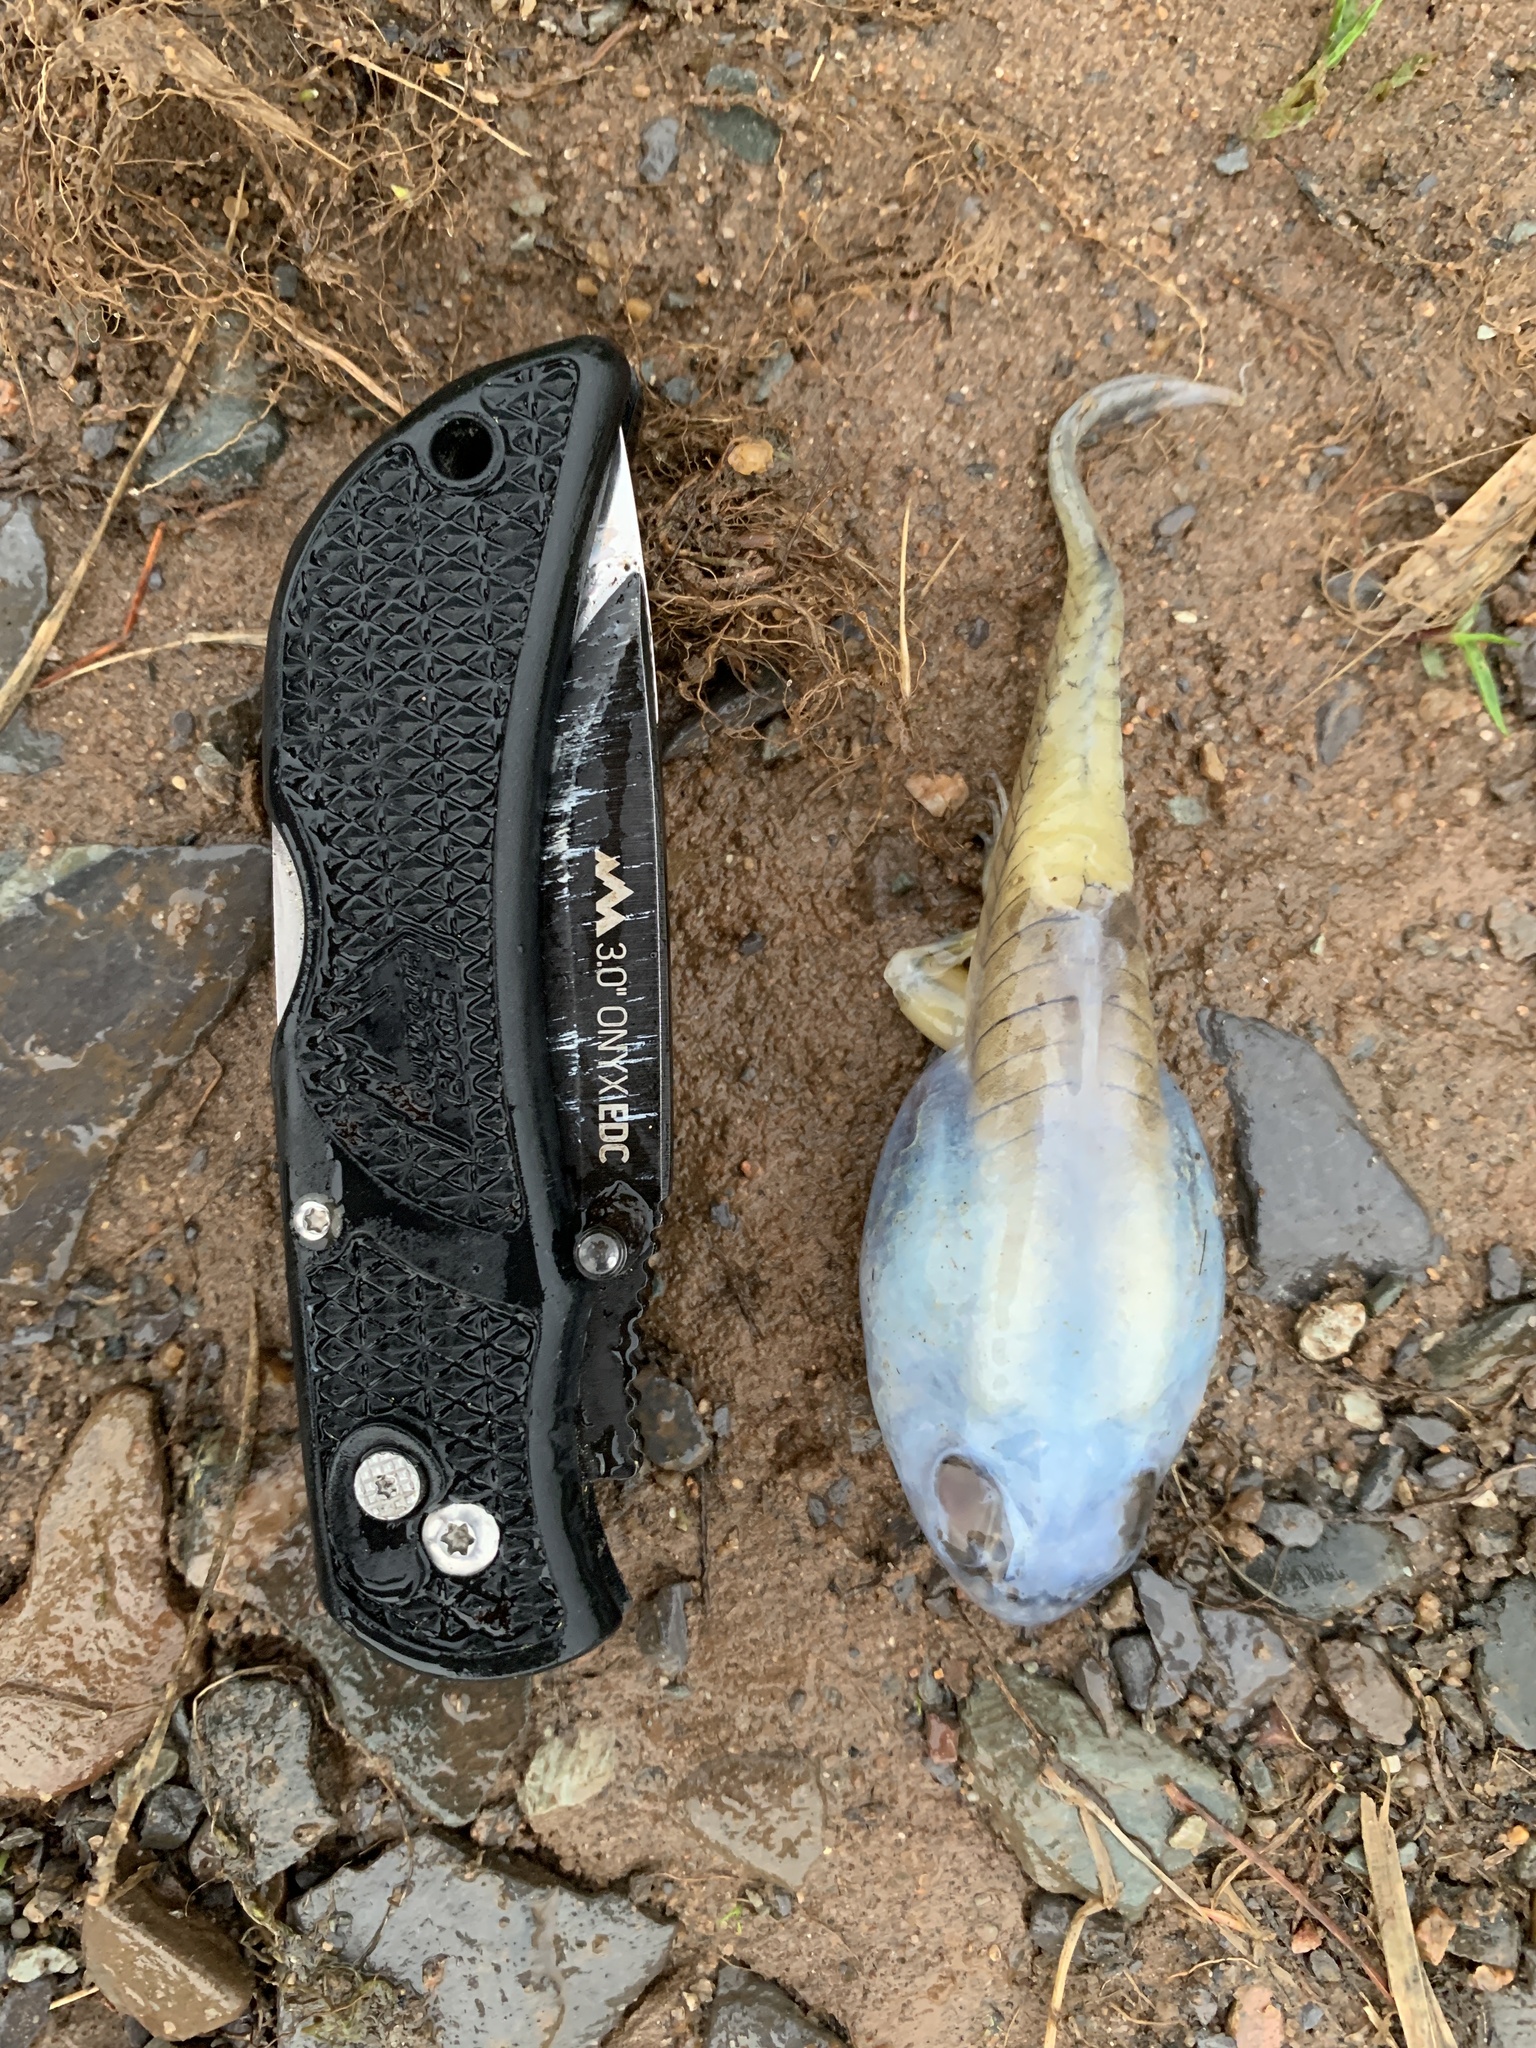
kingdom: Animalia
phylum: Chordata
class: Amphibia
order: Anura
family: Ranidae
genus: Lithobates
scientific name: Lithobates catesbeianus
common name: American bullfrog
